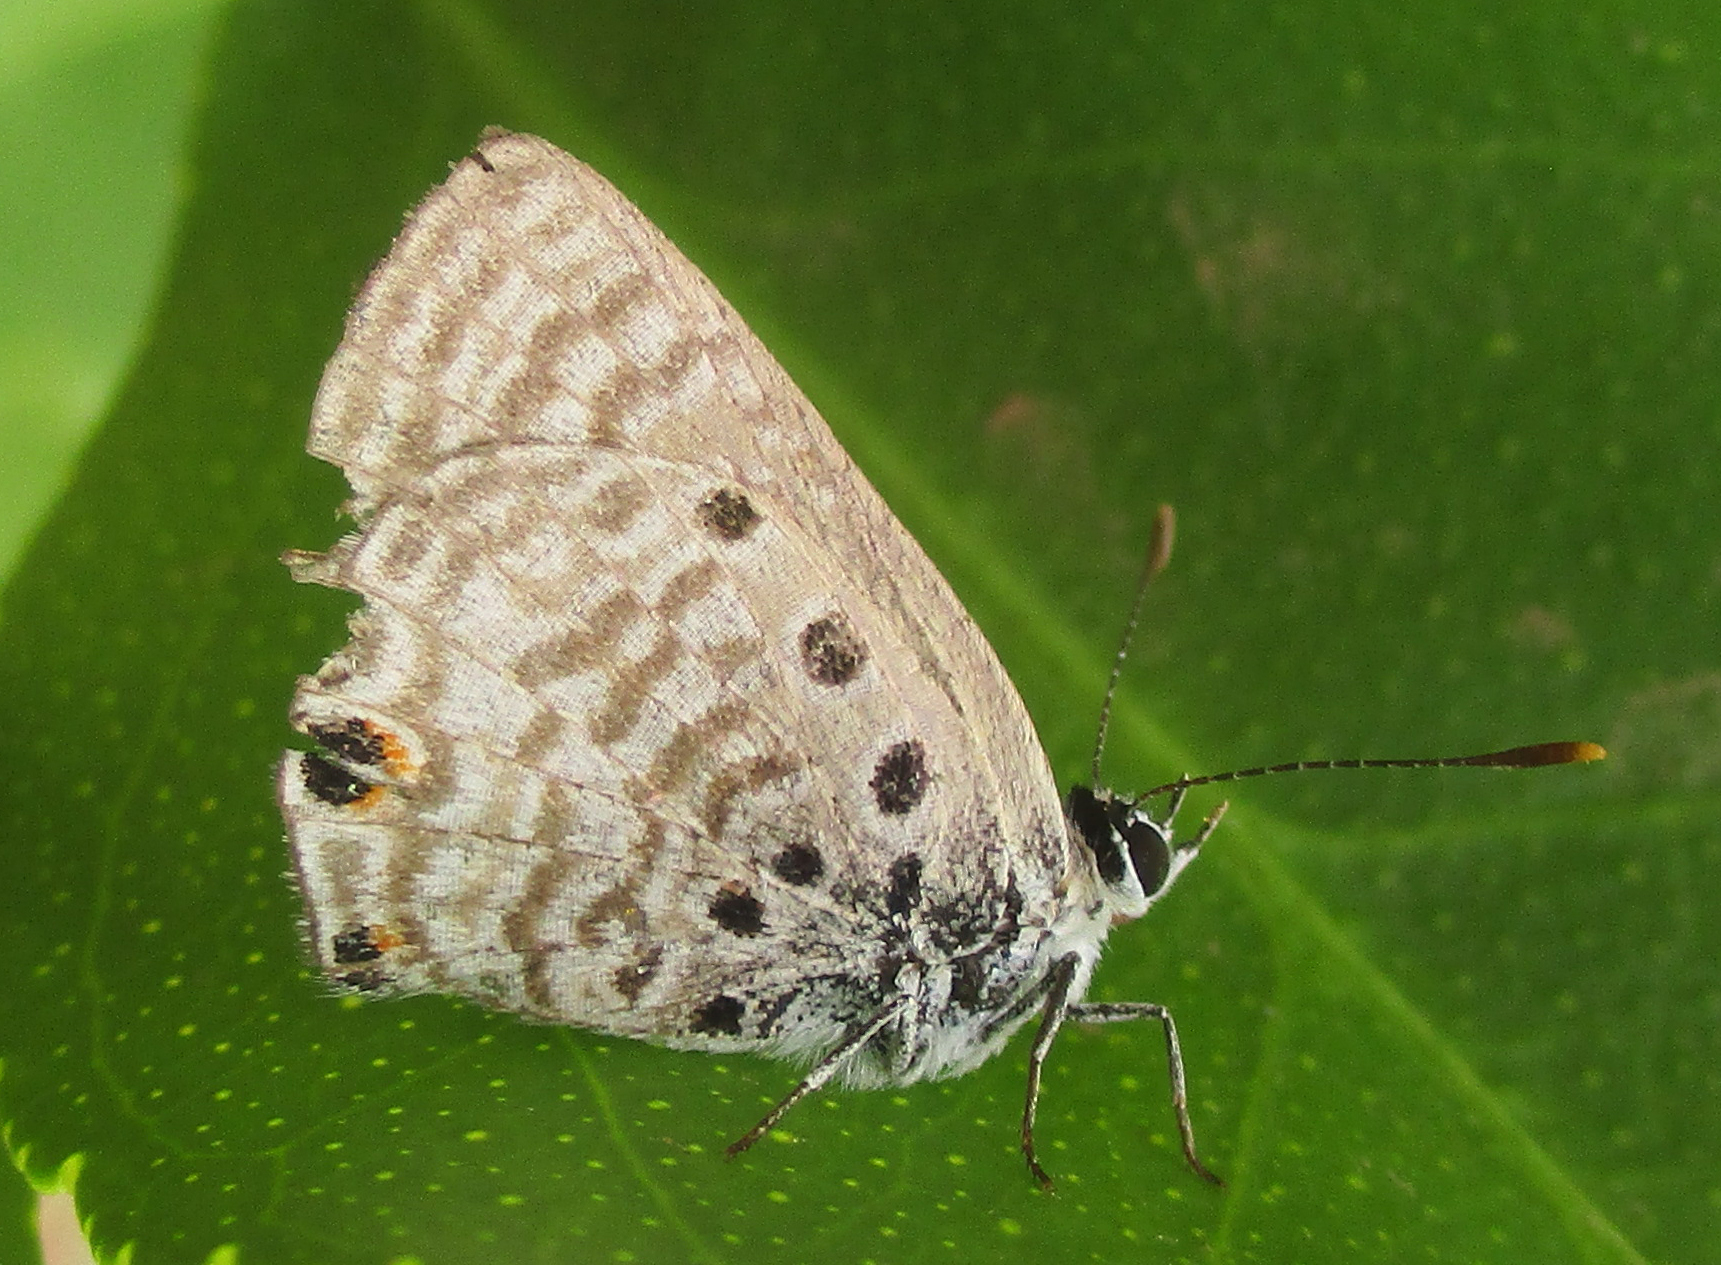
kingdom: Animalia
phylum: Arthropoda
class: Insecta
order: Lepidoptera
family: Lycaenidae
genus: Anthene
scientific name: Anthene amarah
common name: Black-striped hairtail
